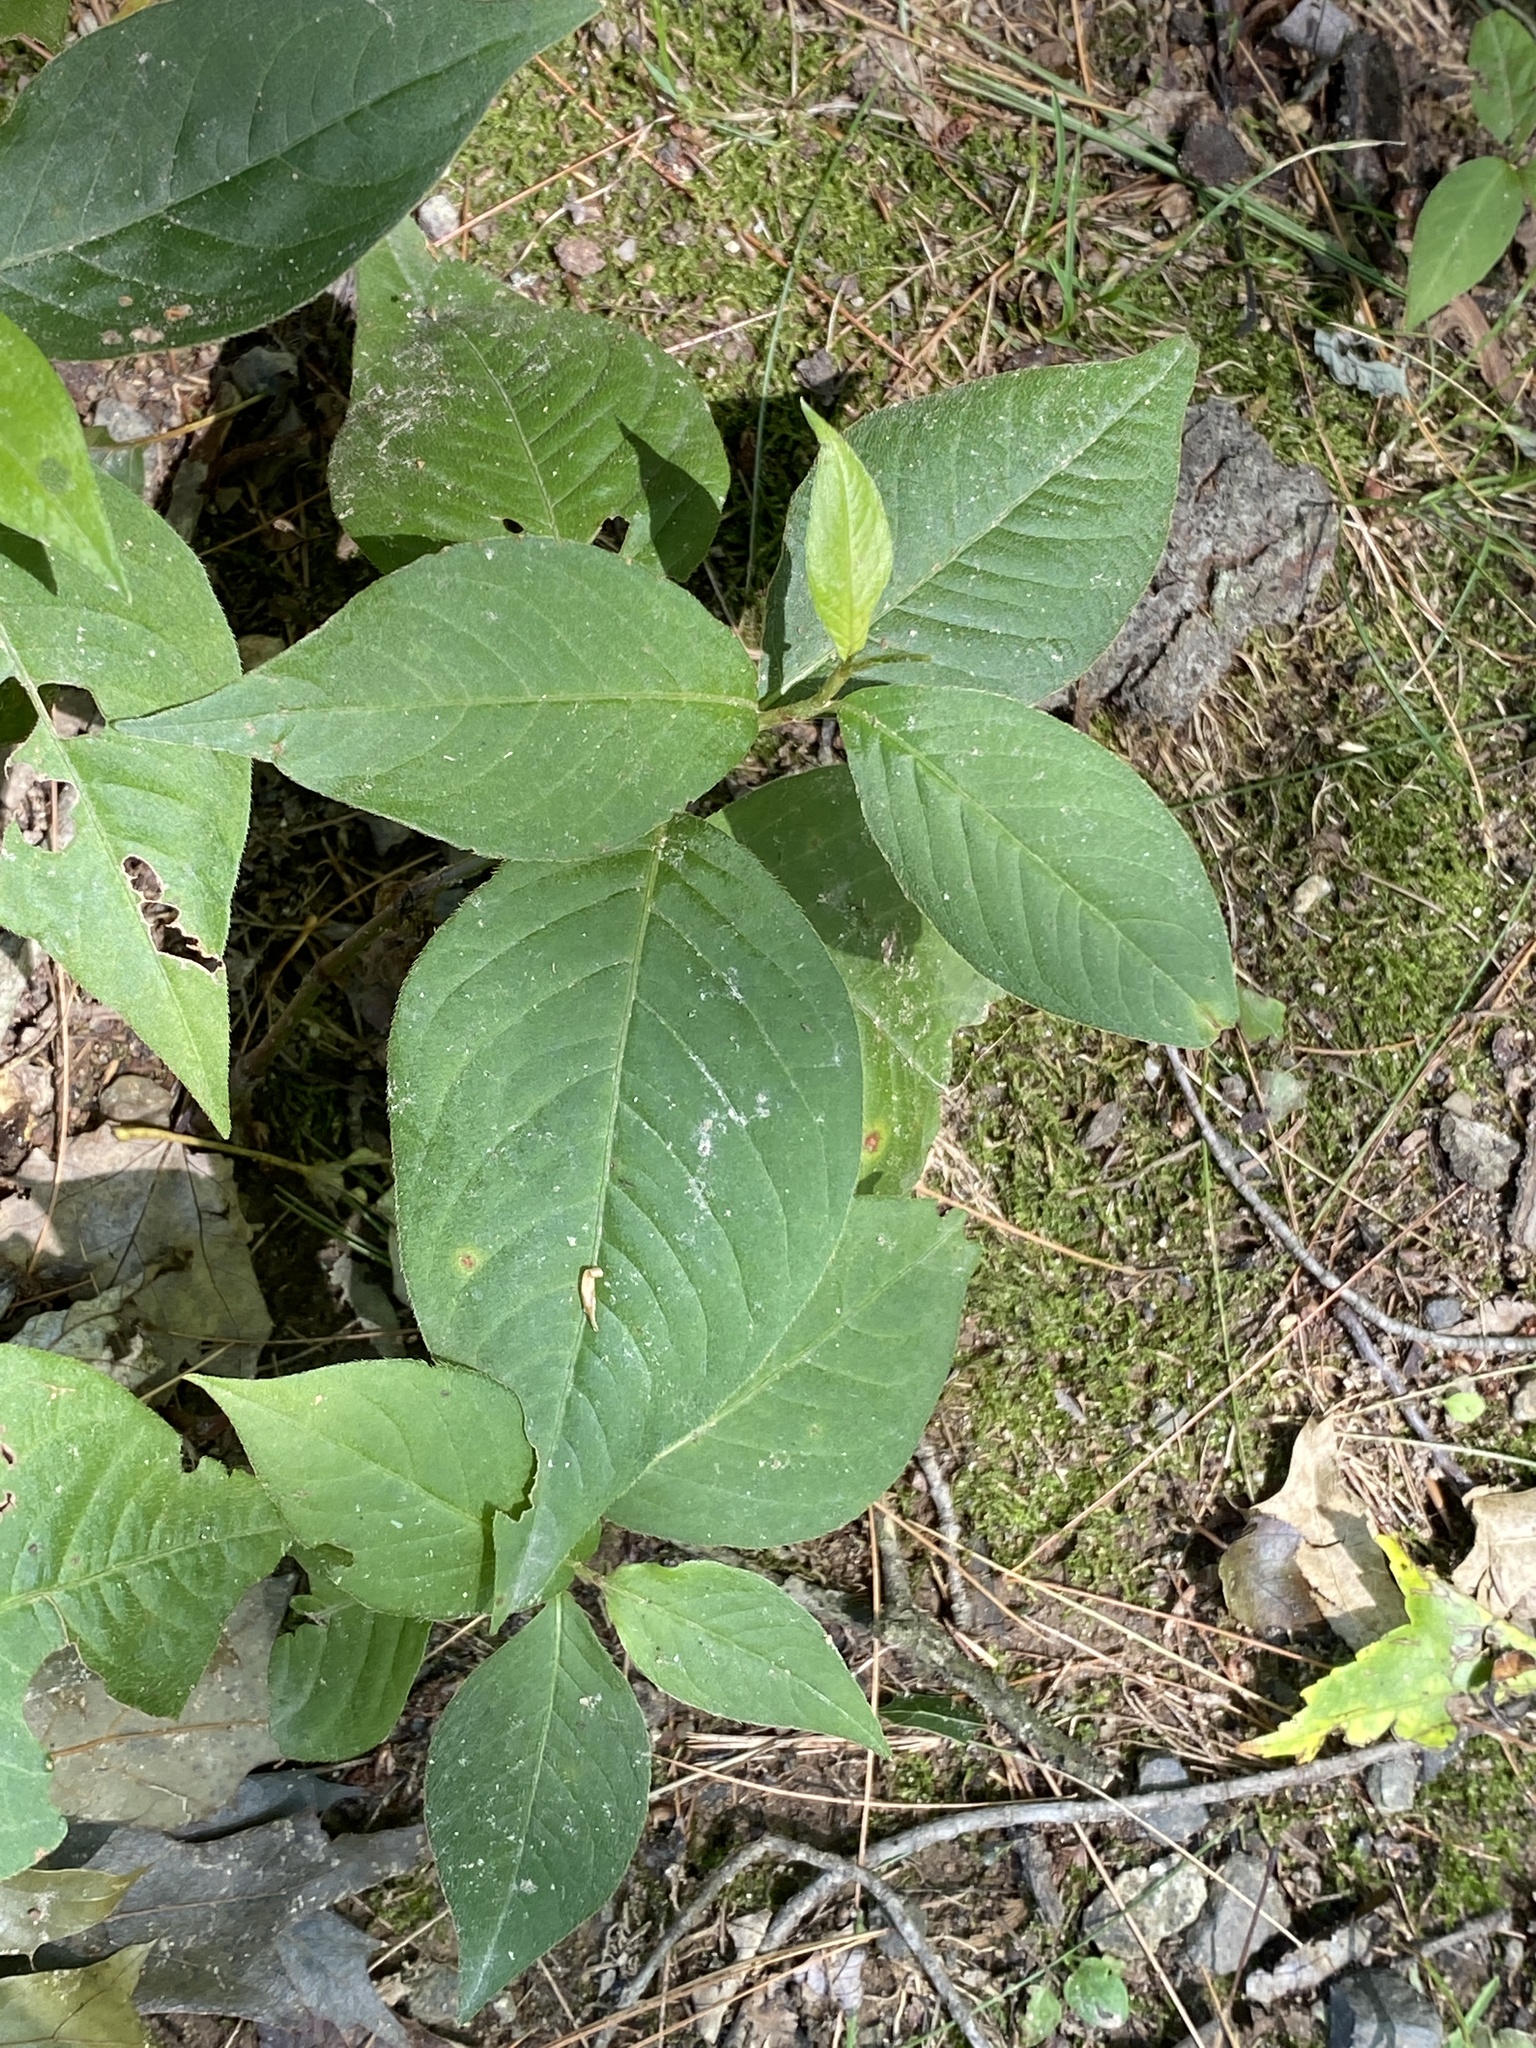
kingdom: Plantae
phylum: Tracheophyta
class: Magnoliopsida
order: Caryophyllales
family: Polygonaceae
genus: Persicaria
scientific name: Persicaria virginiana
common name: Jumpseed
